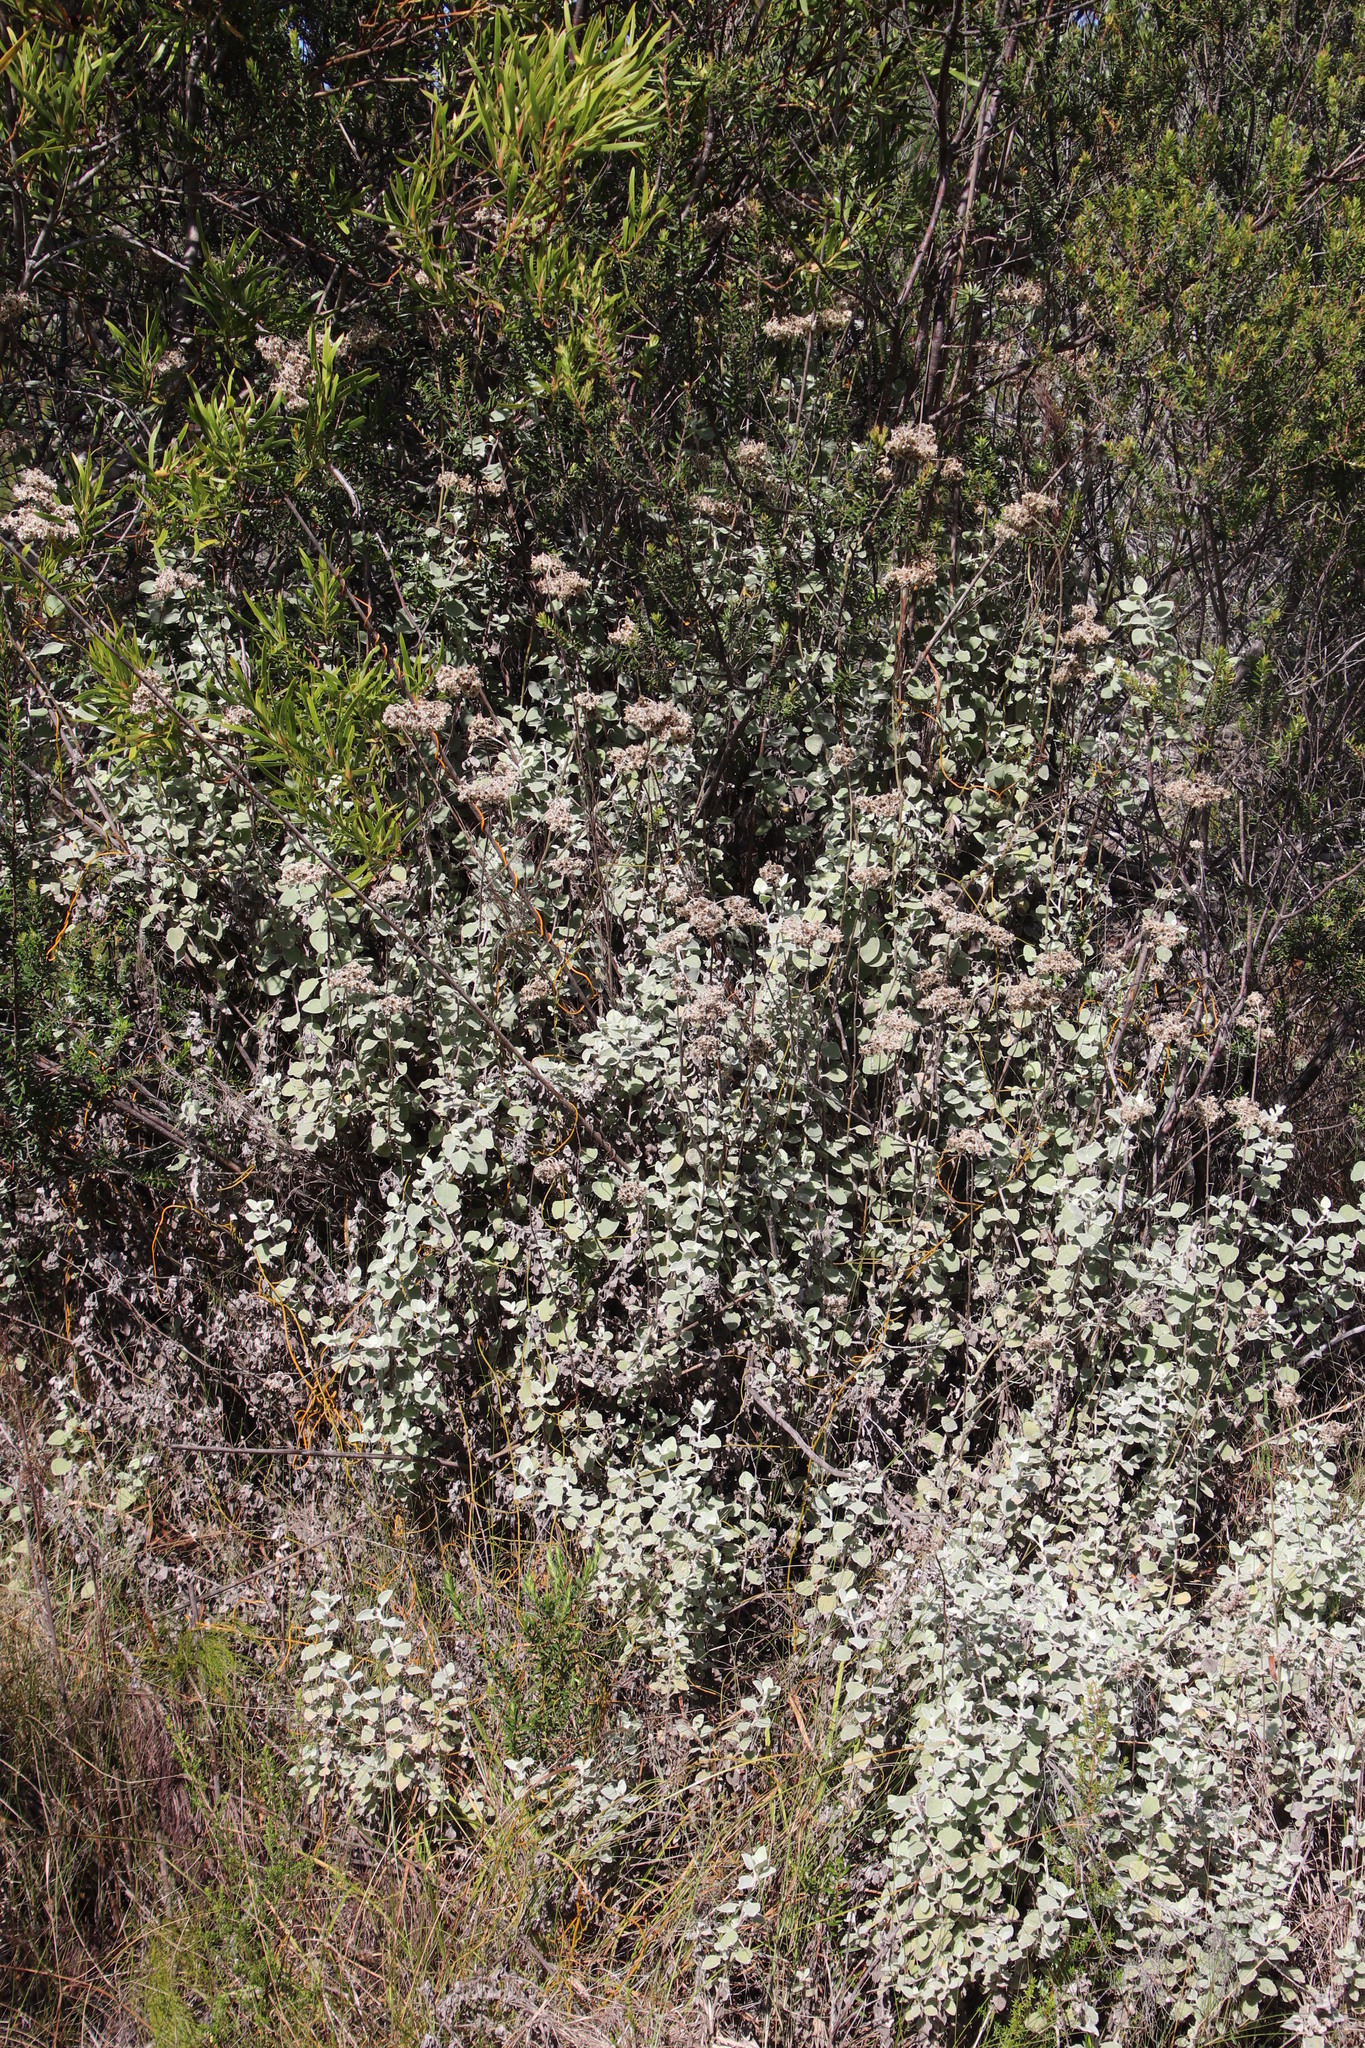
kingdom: Plantae
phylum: Tracheophyta
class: Magnoliopsida
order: Asterales
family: Asteraceae
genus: Helichrysum
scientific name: Helichrysum petiolare
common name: Licorice-plant
